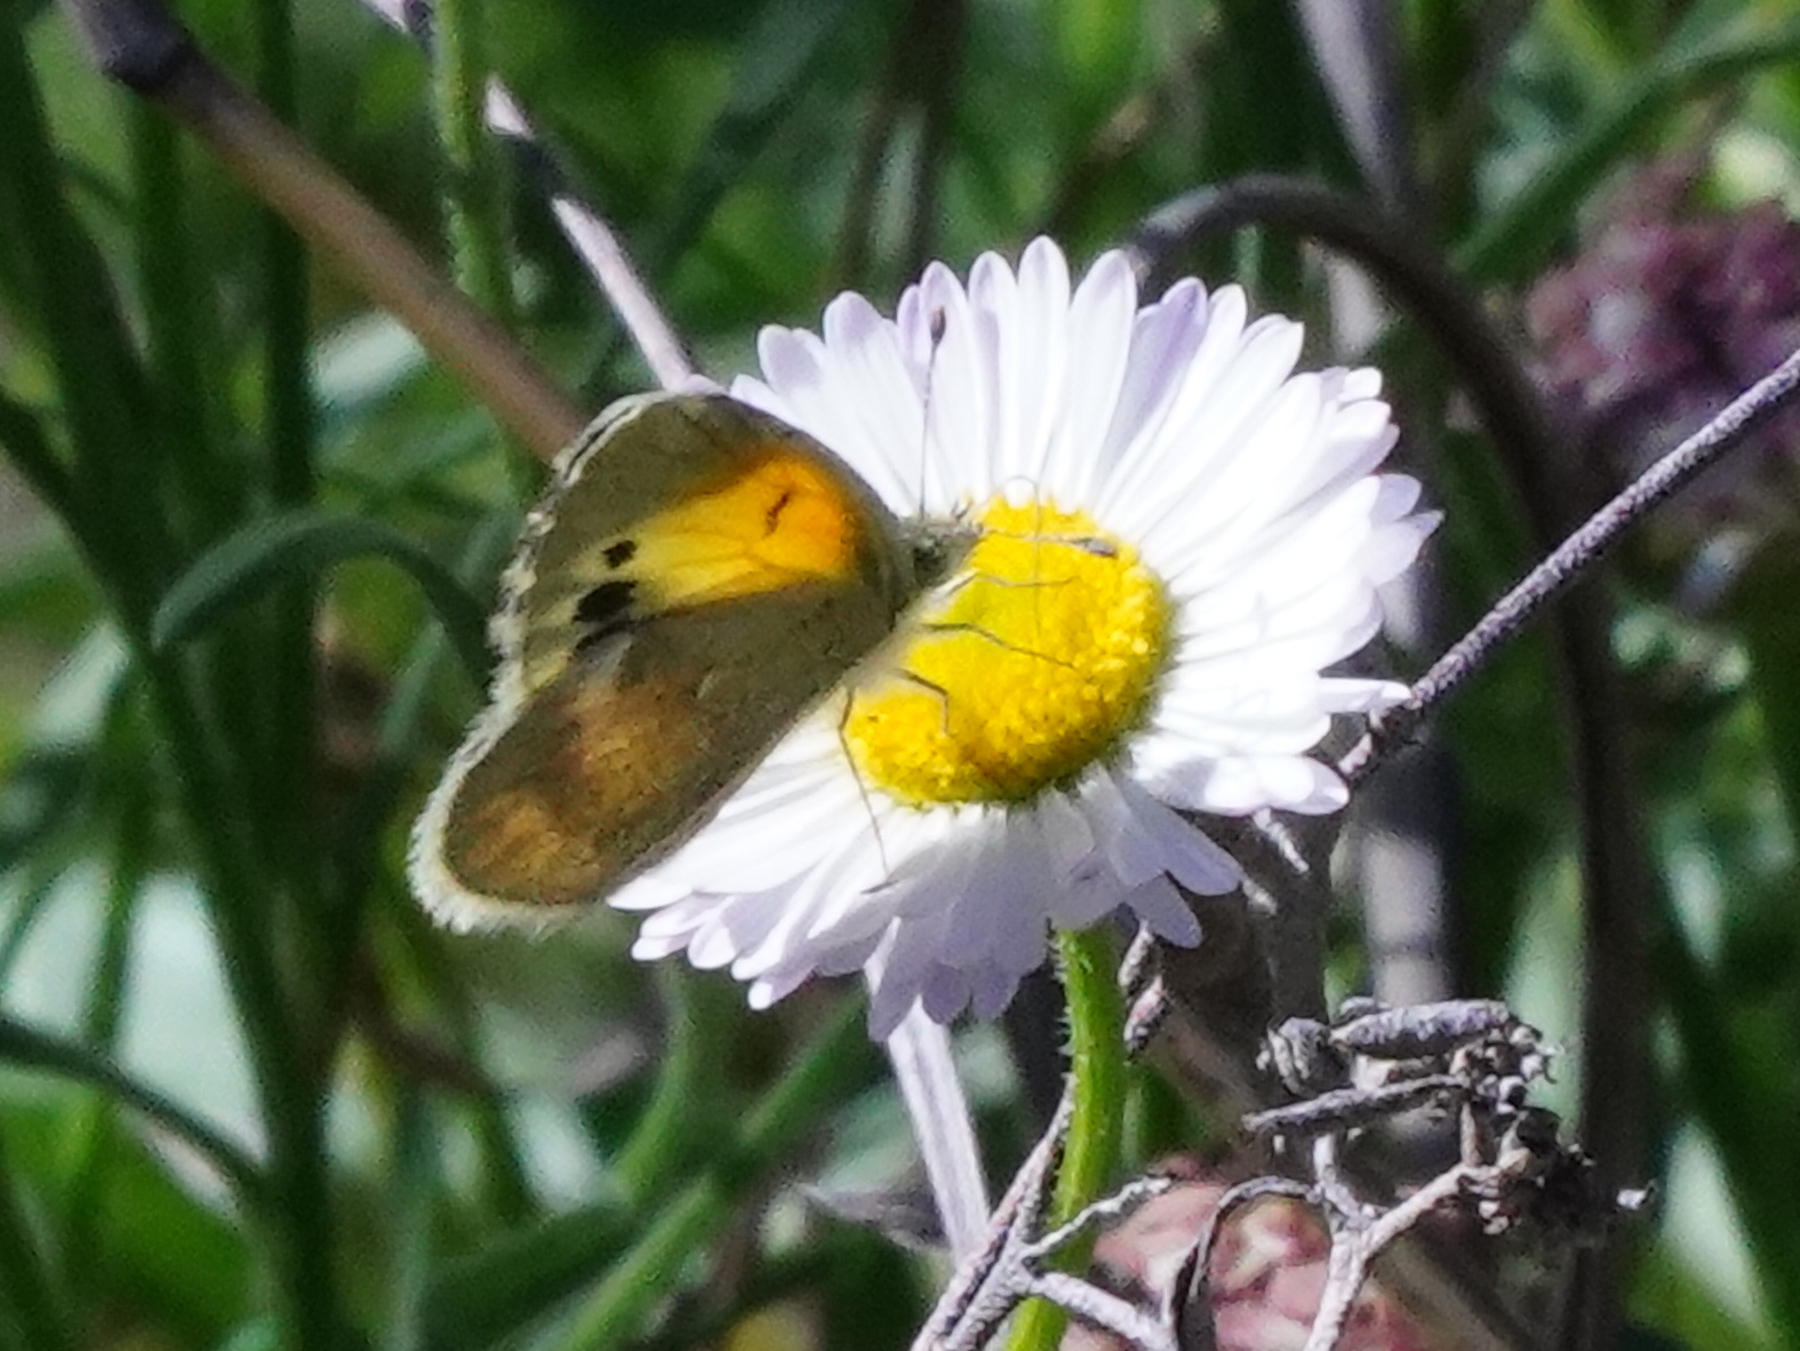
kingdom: Animalia
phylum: Arthropoda
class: Insecta
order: Lepidoptera
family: Pieridae
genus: Nathalis
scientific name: Nathalis iole
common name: Dainty sulphur
